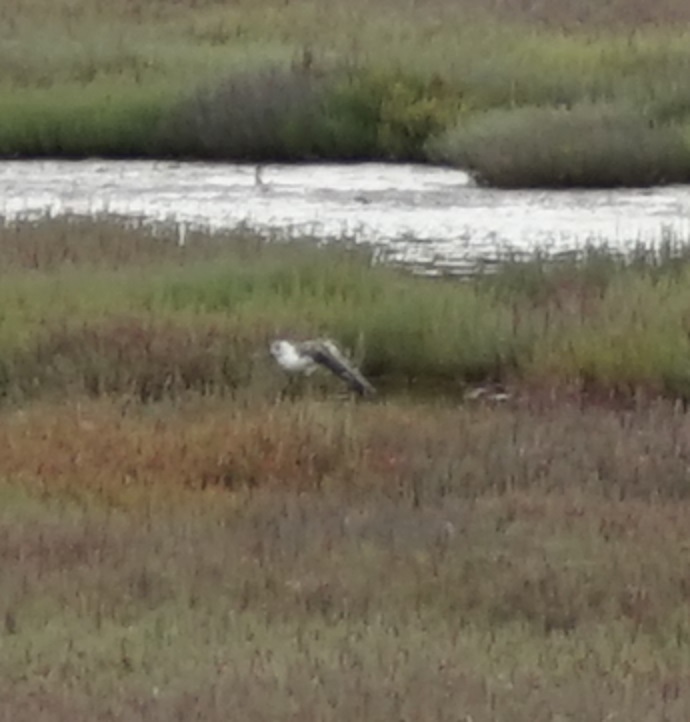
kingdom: Animalia
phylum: Chordata
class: Aves
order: Charadriiformes
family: Recurvirostridae
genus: Himantopus
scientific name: Himantopus leucocephalus
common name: White-headed stilt
